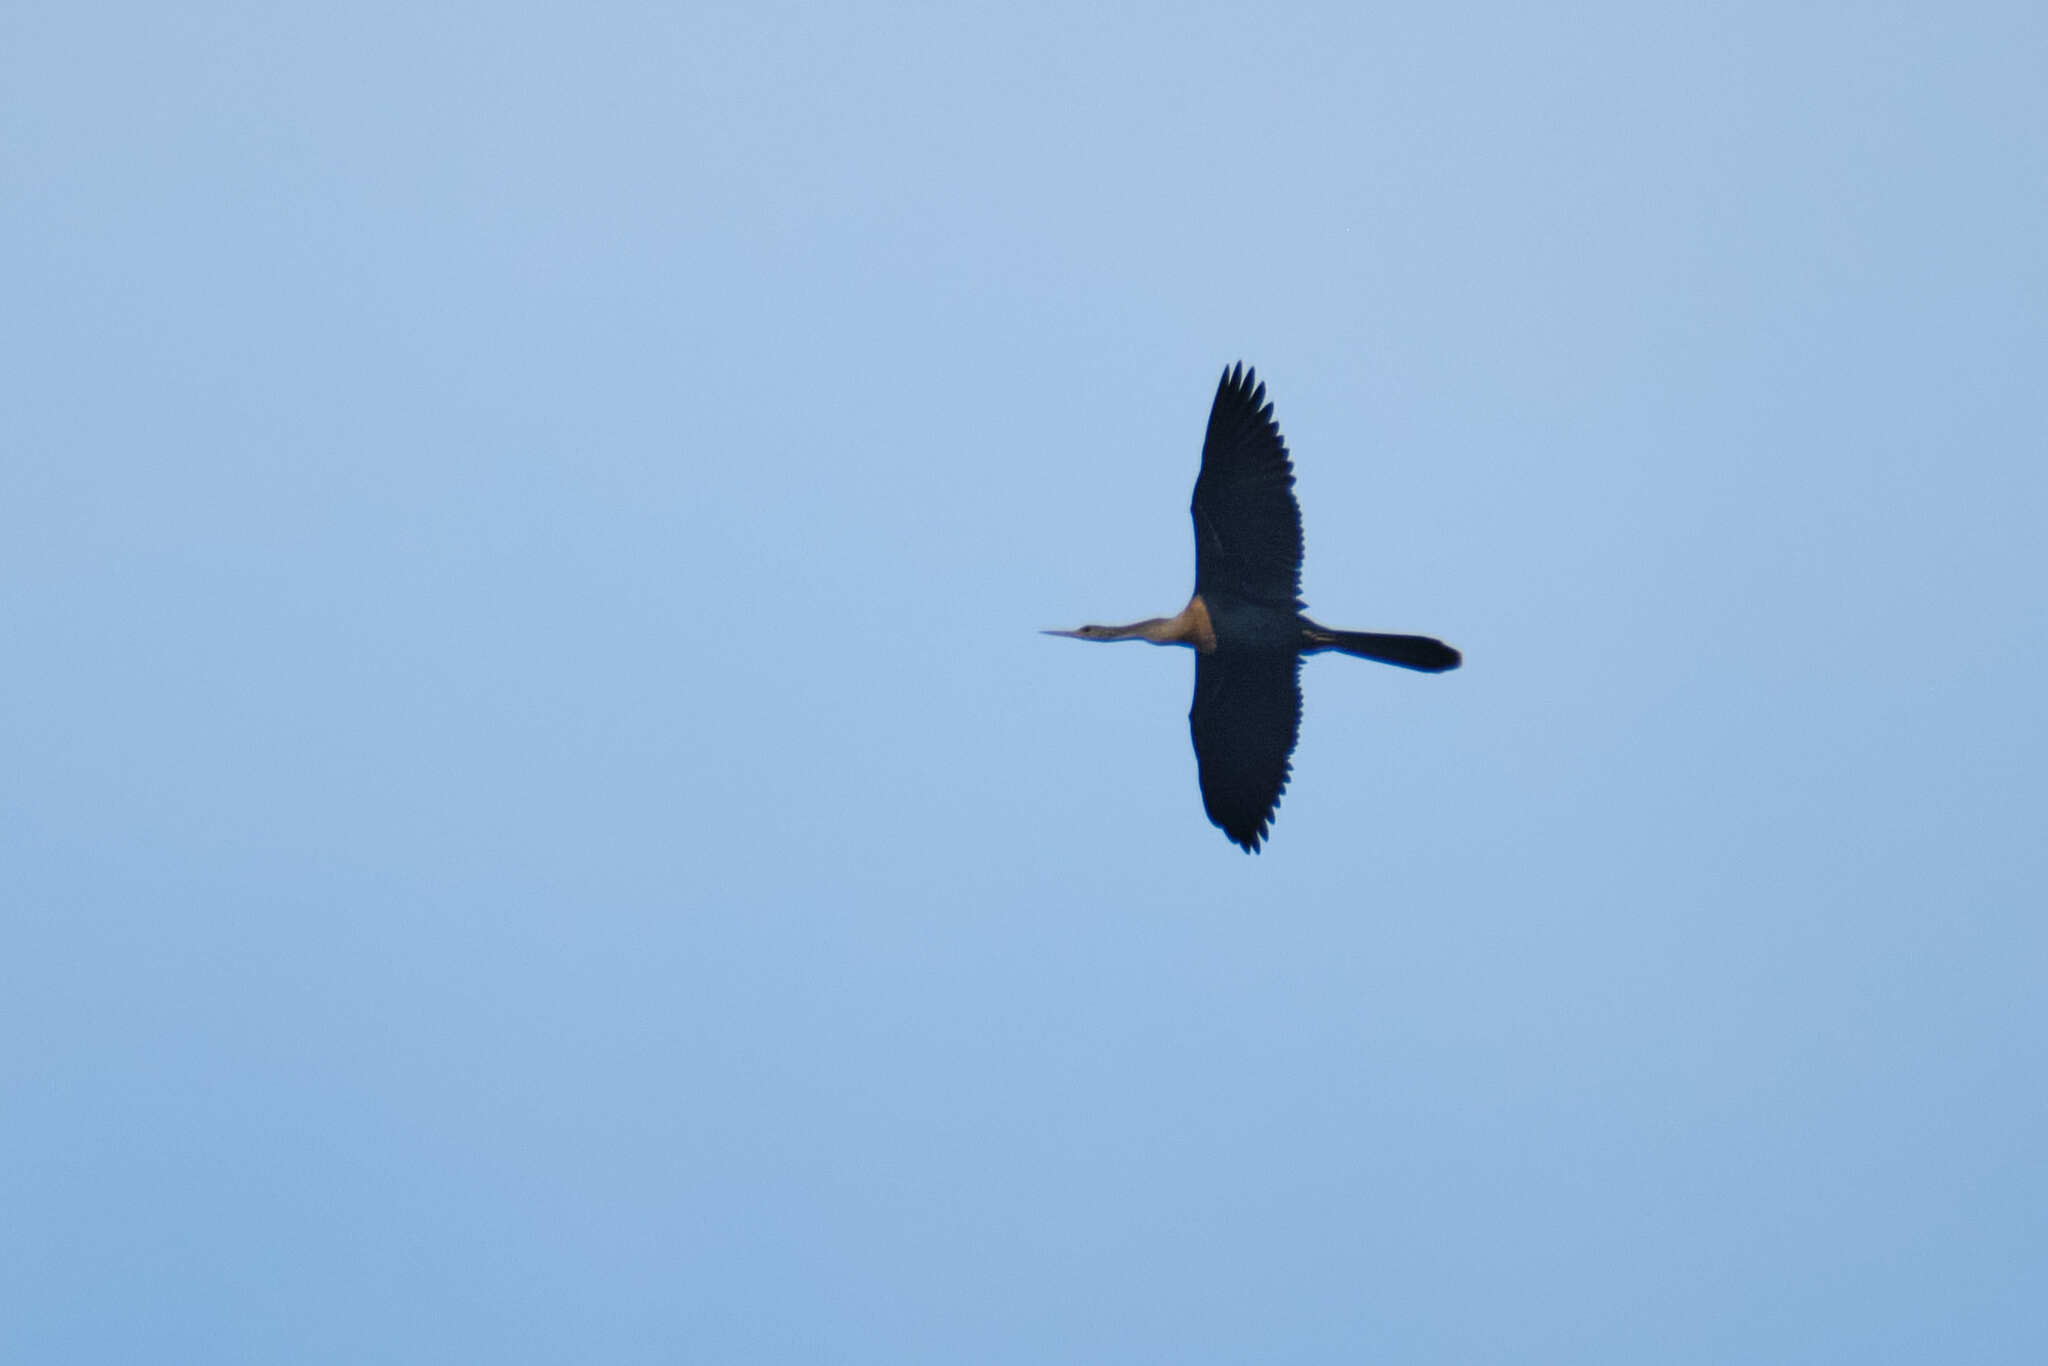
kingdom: Animalia
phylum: Chordata
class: Aves
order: Suliformes
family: Anhingidae
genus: Anhinga
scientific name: Anhinga anhinga
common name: Anhinga
